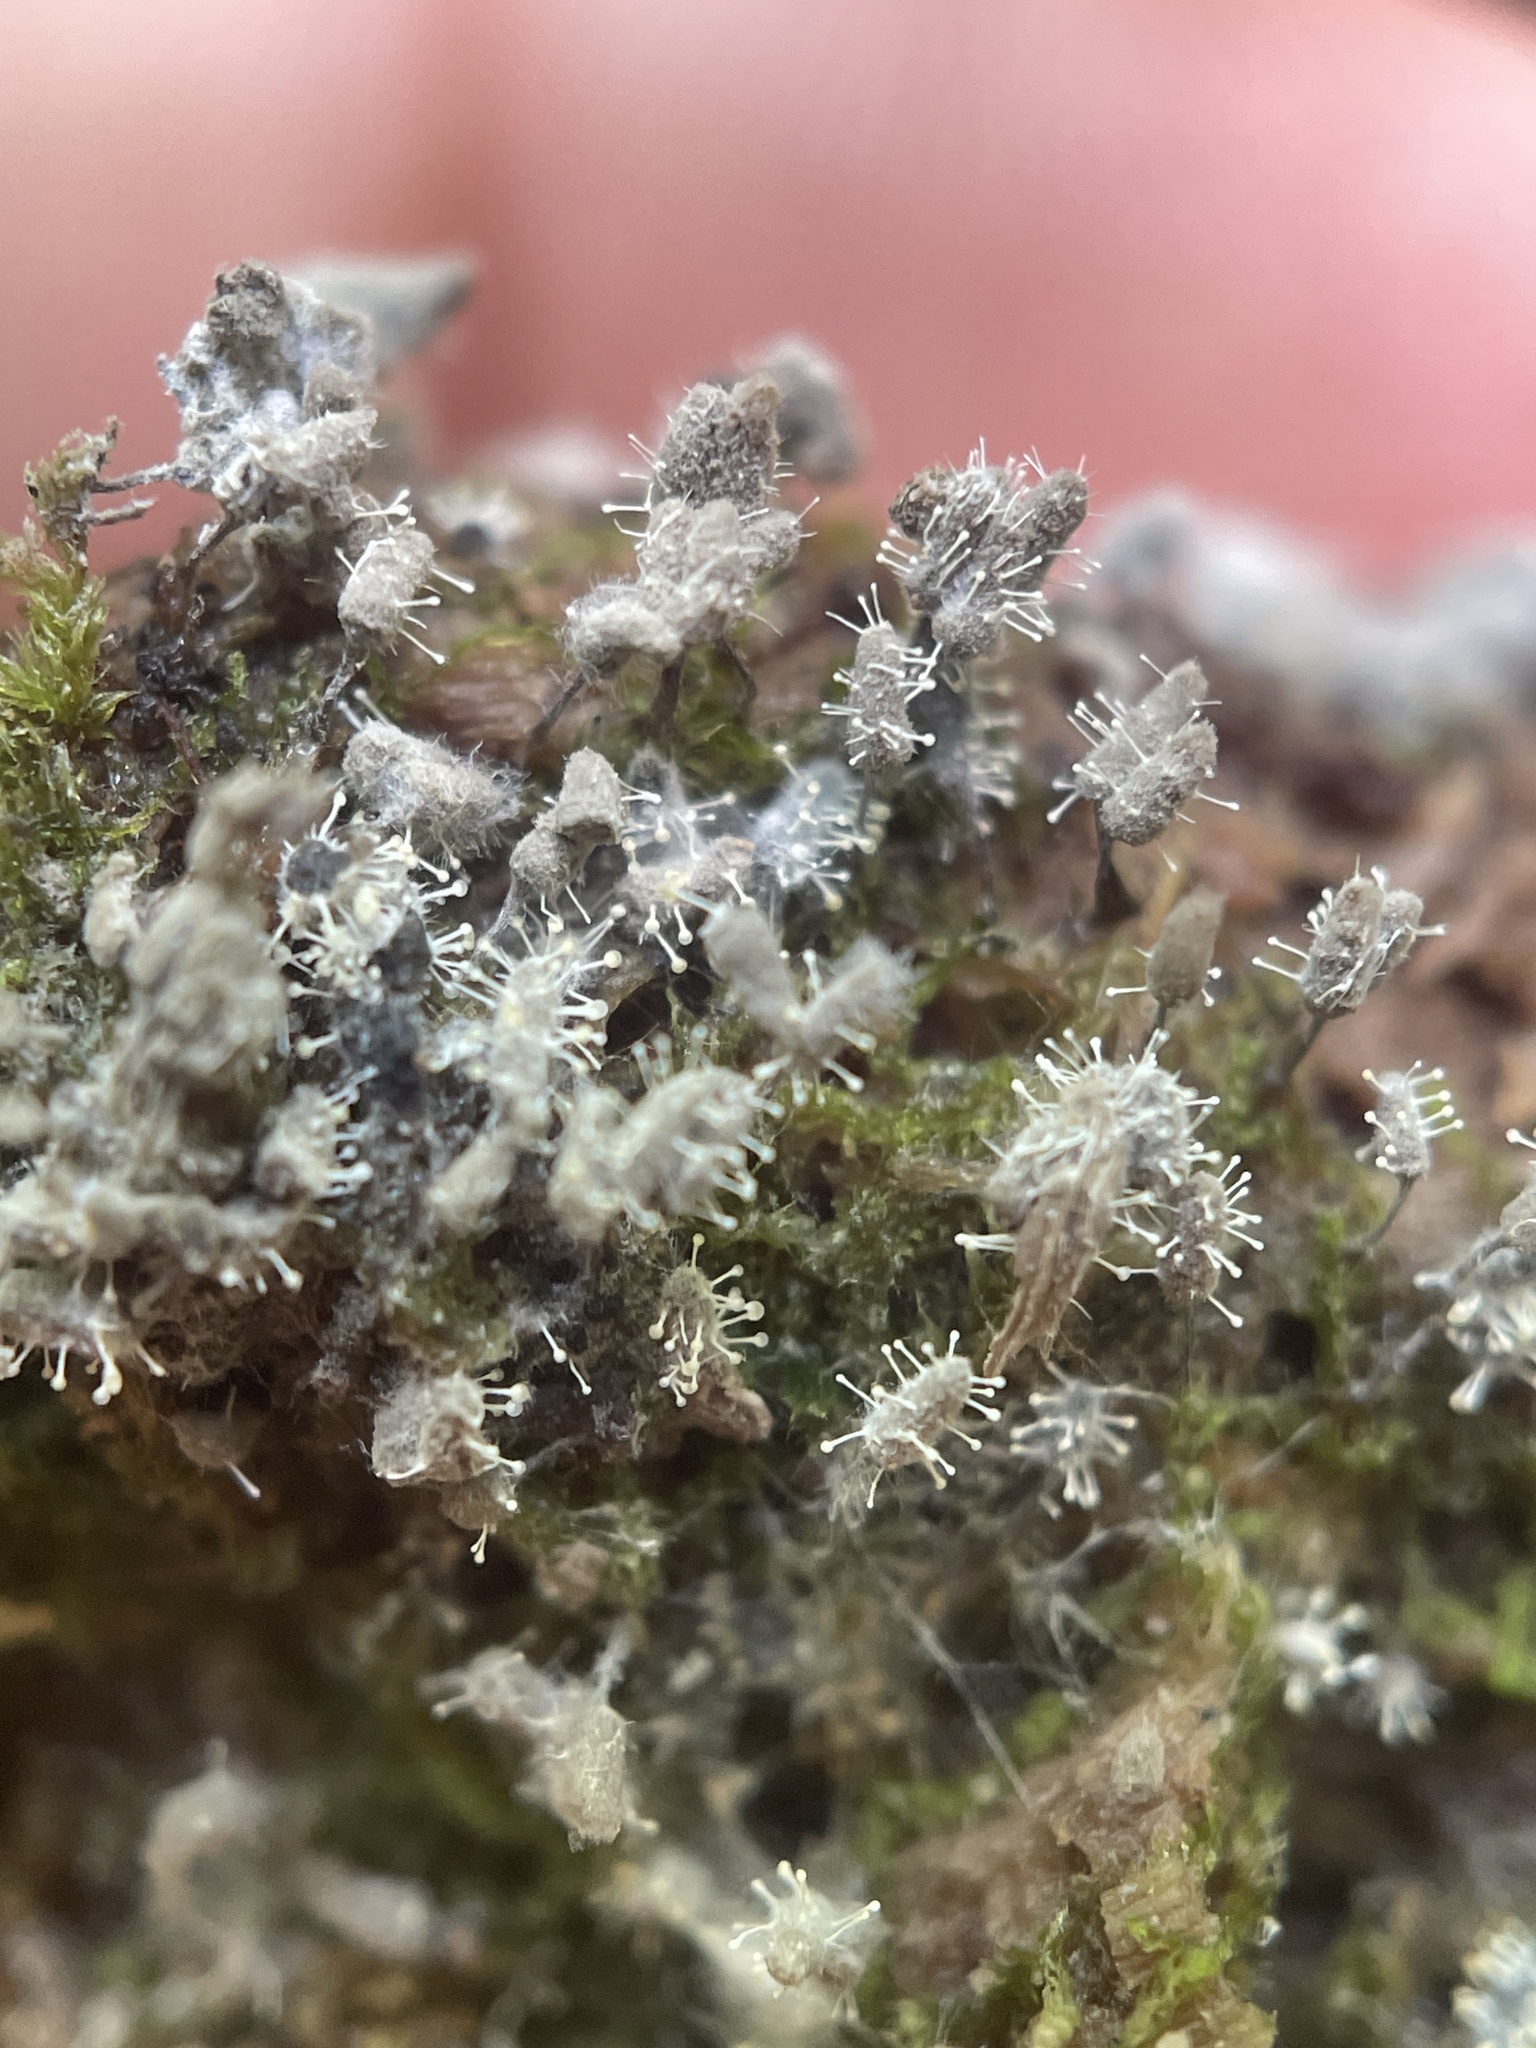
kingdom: Fungi
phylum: Ascomycota
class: Sordariomycetes
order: Hypocreales
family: Ophiocordycipitaceae
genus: Polycephalomyces
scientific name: Polycephalomyces tomentosus
